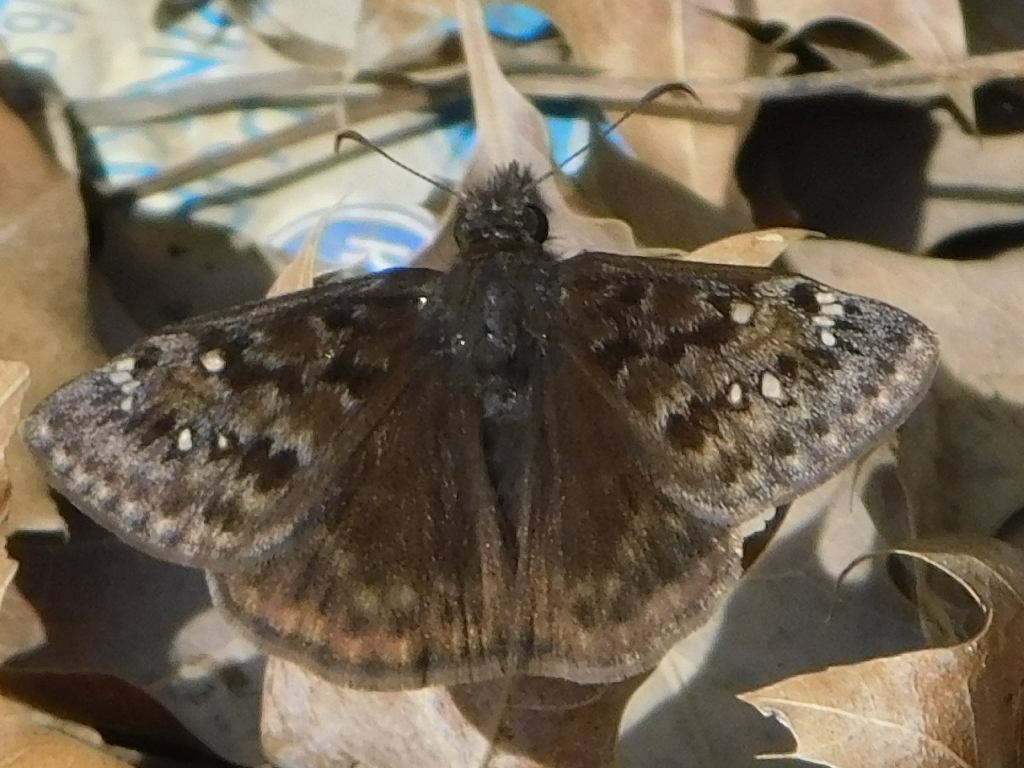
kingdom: Animalia
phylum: Arthropoda
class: Insecta
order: Lepidoptera
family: Hesperiidae
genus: Erynnis
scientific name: Erynnis juvenalis
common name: Juvenal's duskywing
